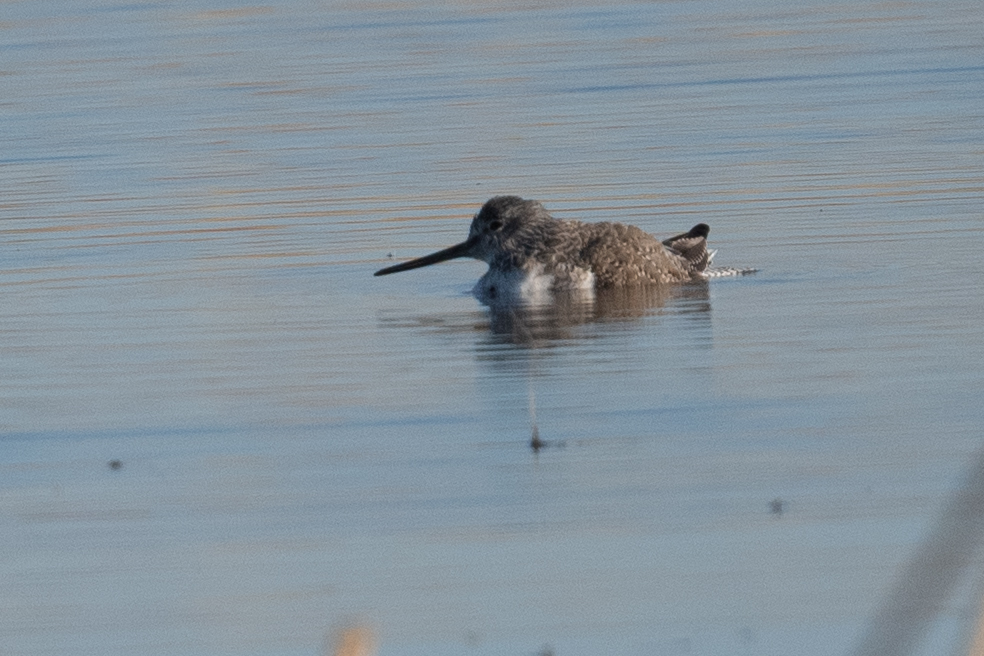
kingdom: Animalia
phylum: Chordata
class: Aves
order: Charadriiformes
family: Scolopacidae
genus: Tringa
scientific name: Tringa melanoleuca
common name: Greater yellowlegs
